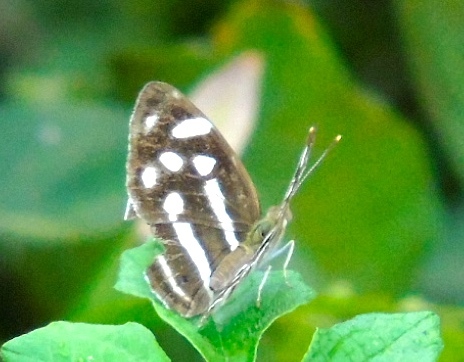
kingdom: Animalia
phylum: Arthropoda
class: Insecta
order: Lepidoptera
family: Nymphalidae
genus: Dynamine
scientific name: Dynamine mylitta
